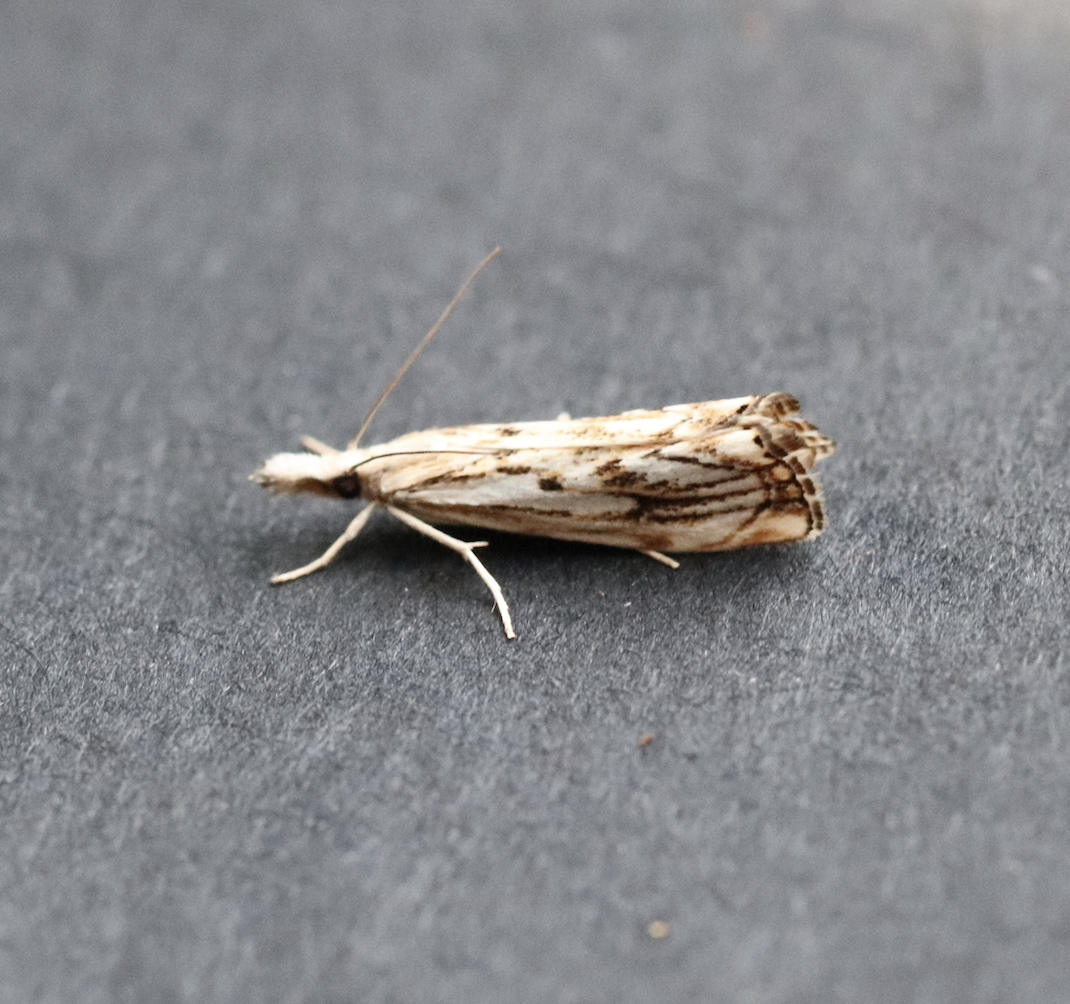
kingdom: Animalia
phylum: Arthropoda
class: Insecta
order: Lepidoptera
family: Crambidae
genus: Catoptria
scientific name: Catoptria falsella
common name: Chequered grass-veneer
